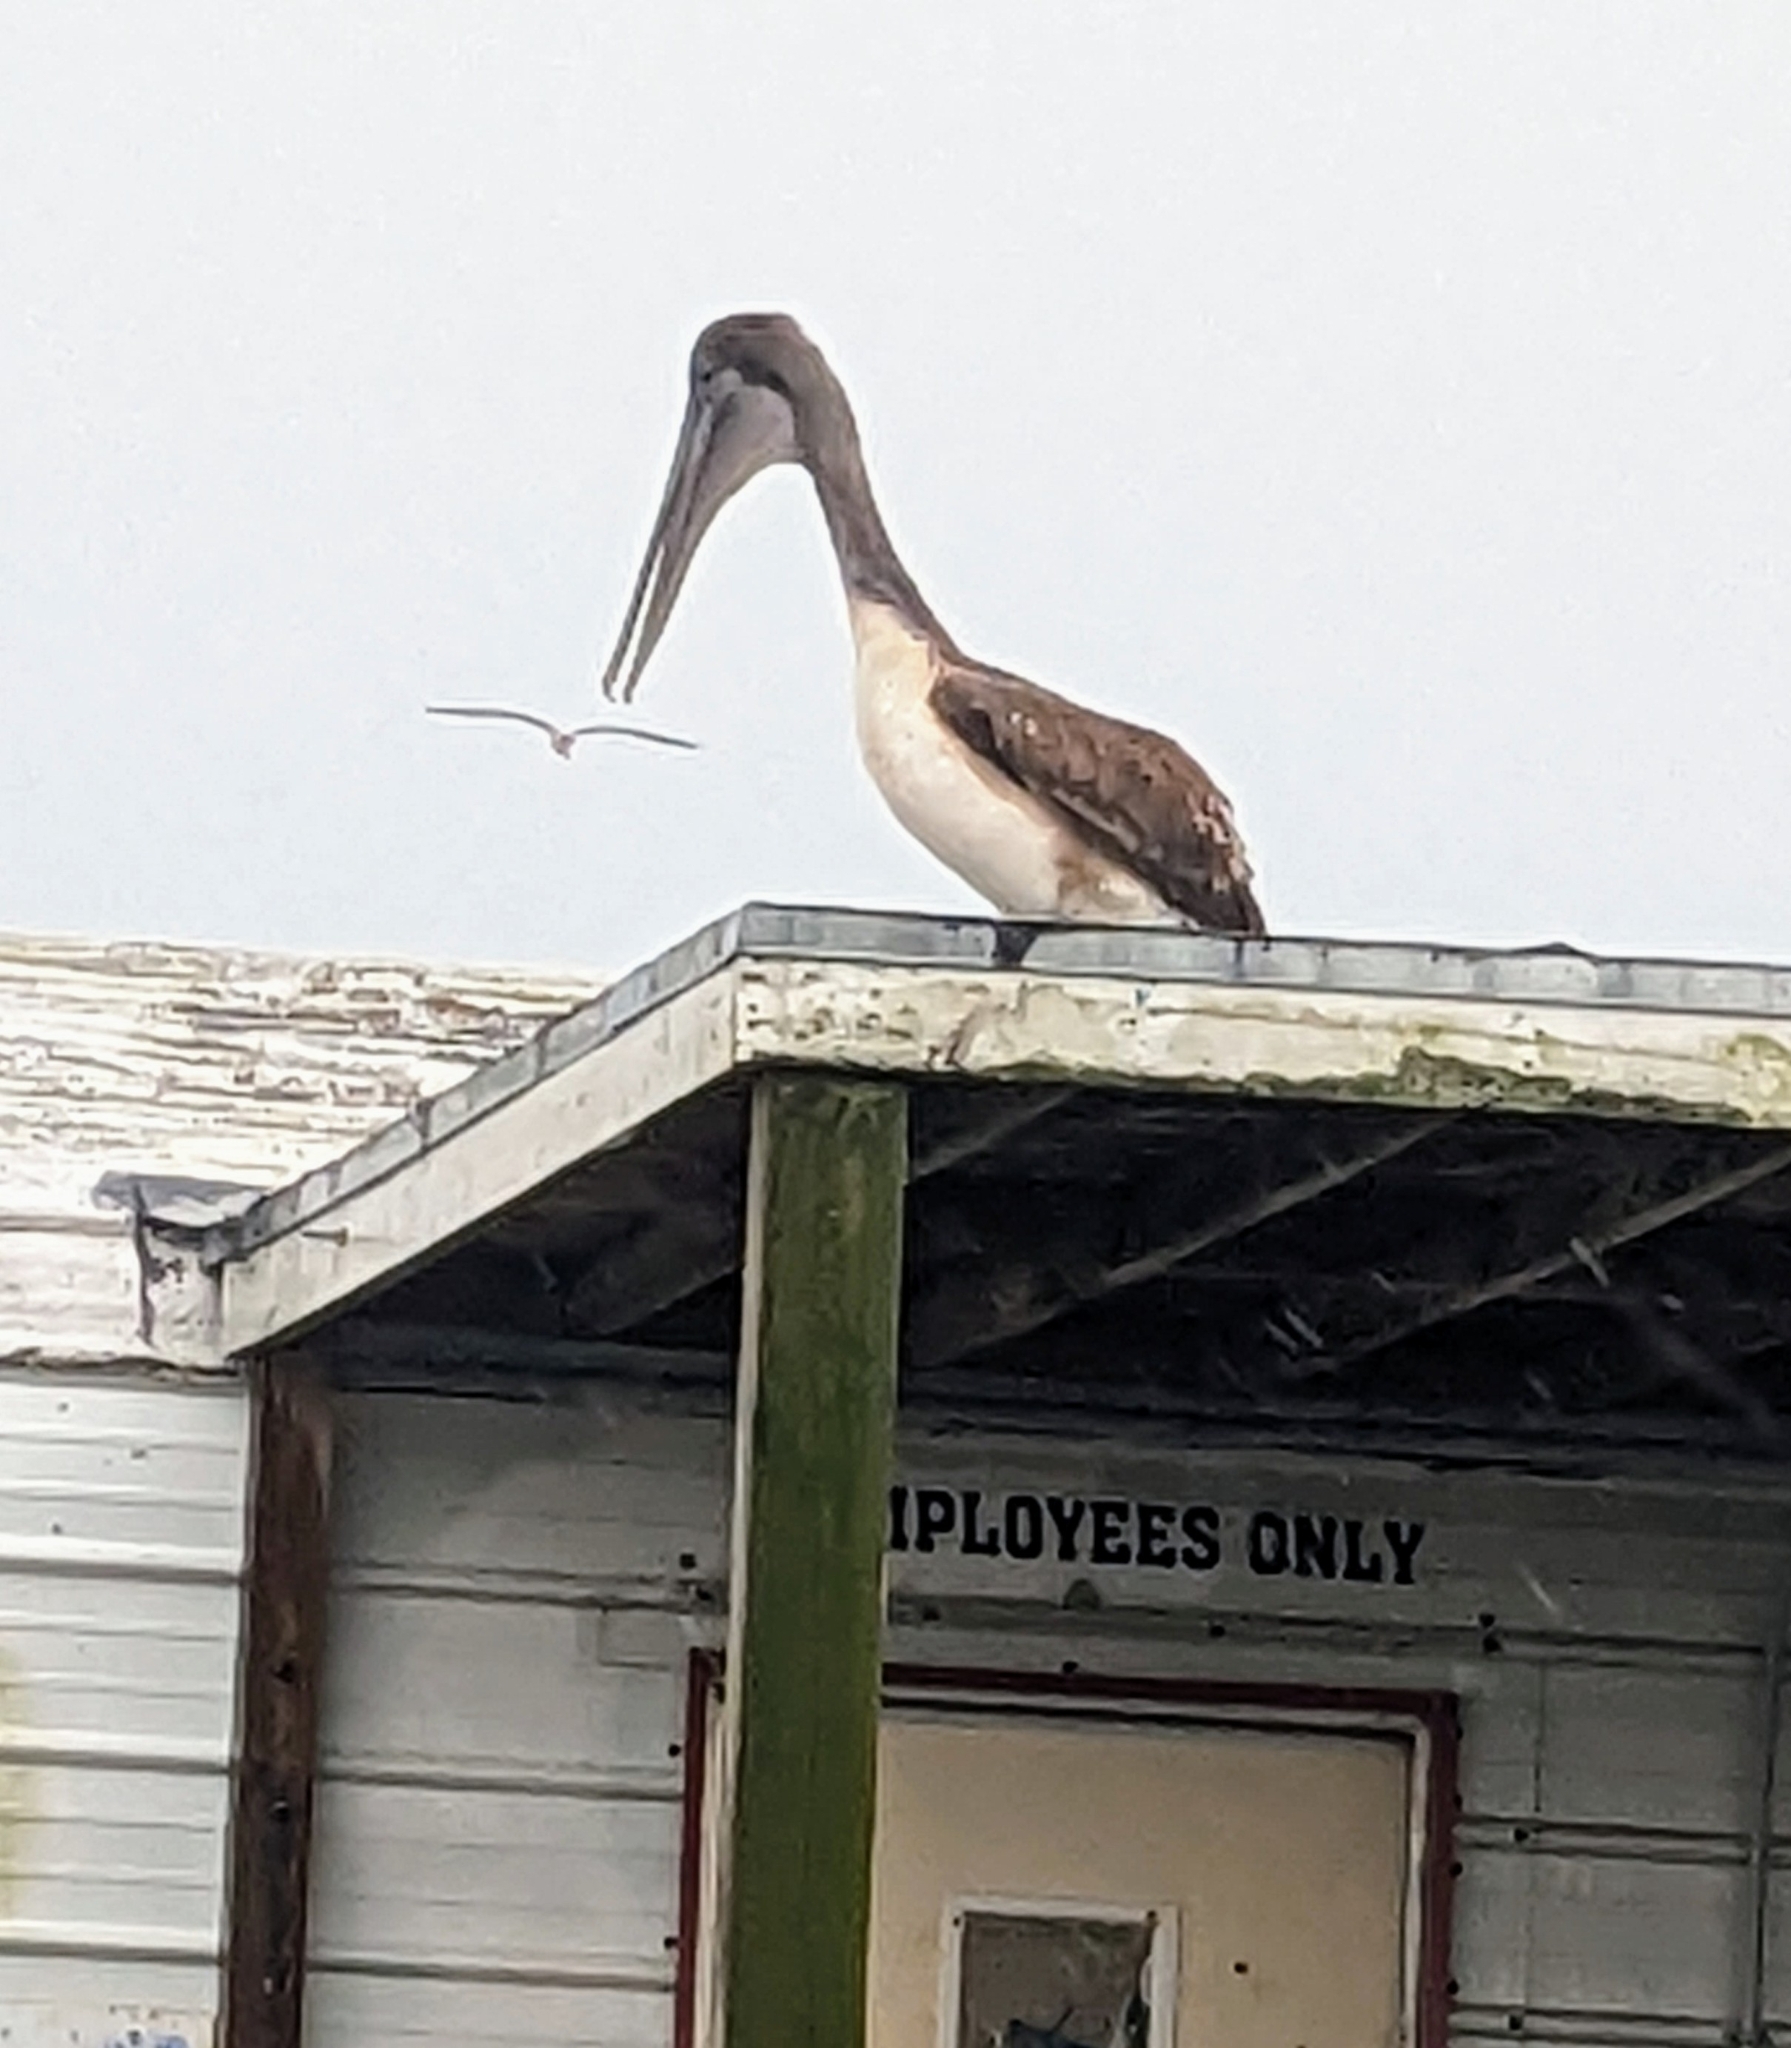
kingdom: Animalia
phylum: Chordata
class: Aves
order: Pelecaniformes
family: Pelecanidae
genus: Pelecanus
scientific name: Pelecanus occidentalis
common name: Brown pelican
